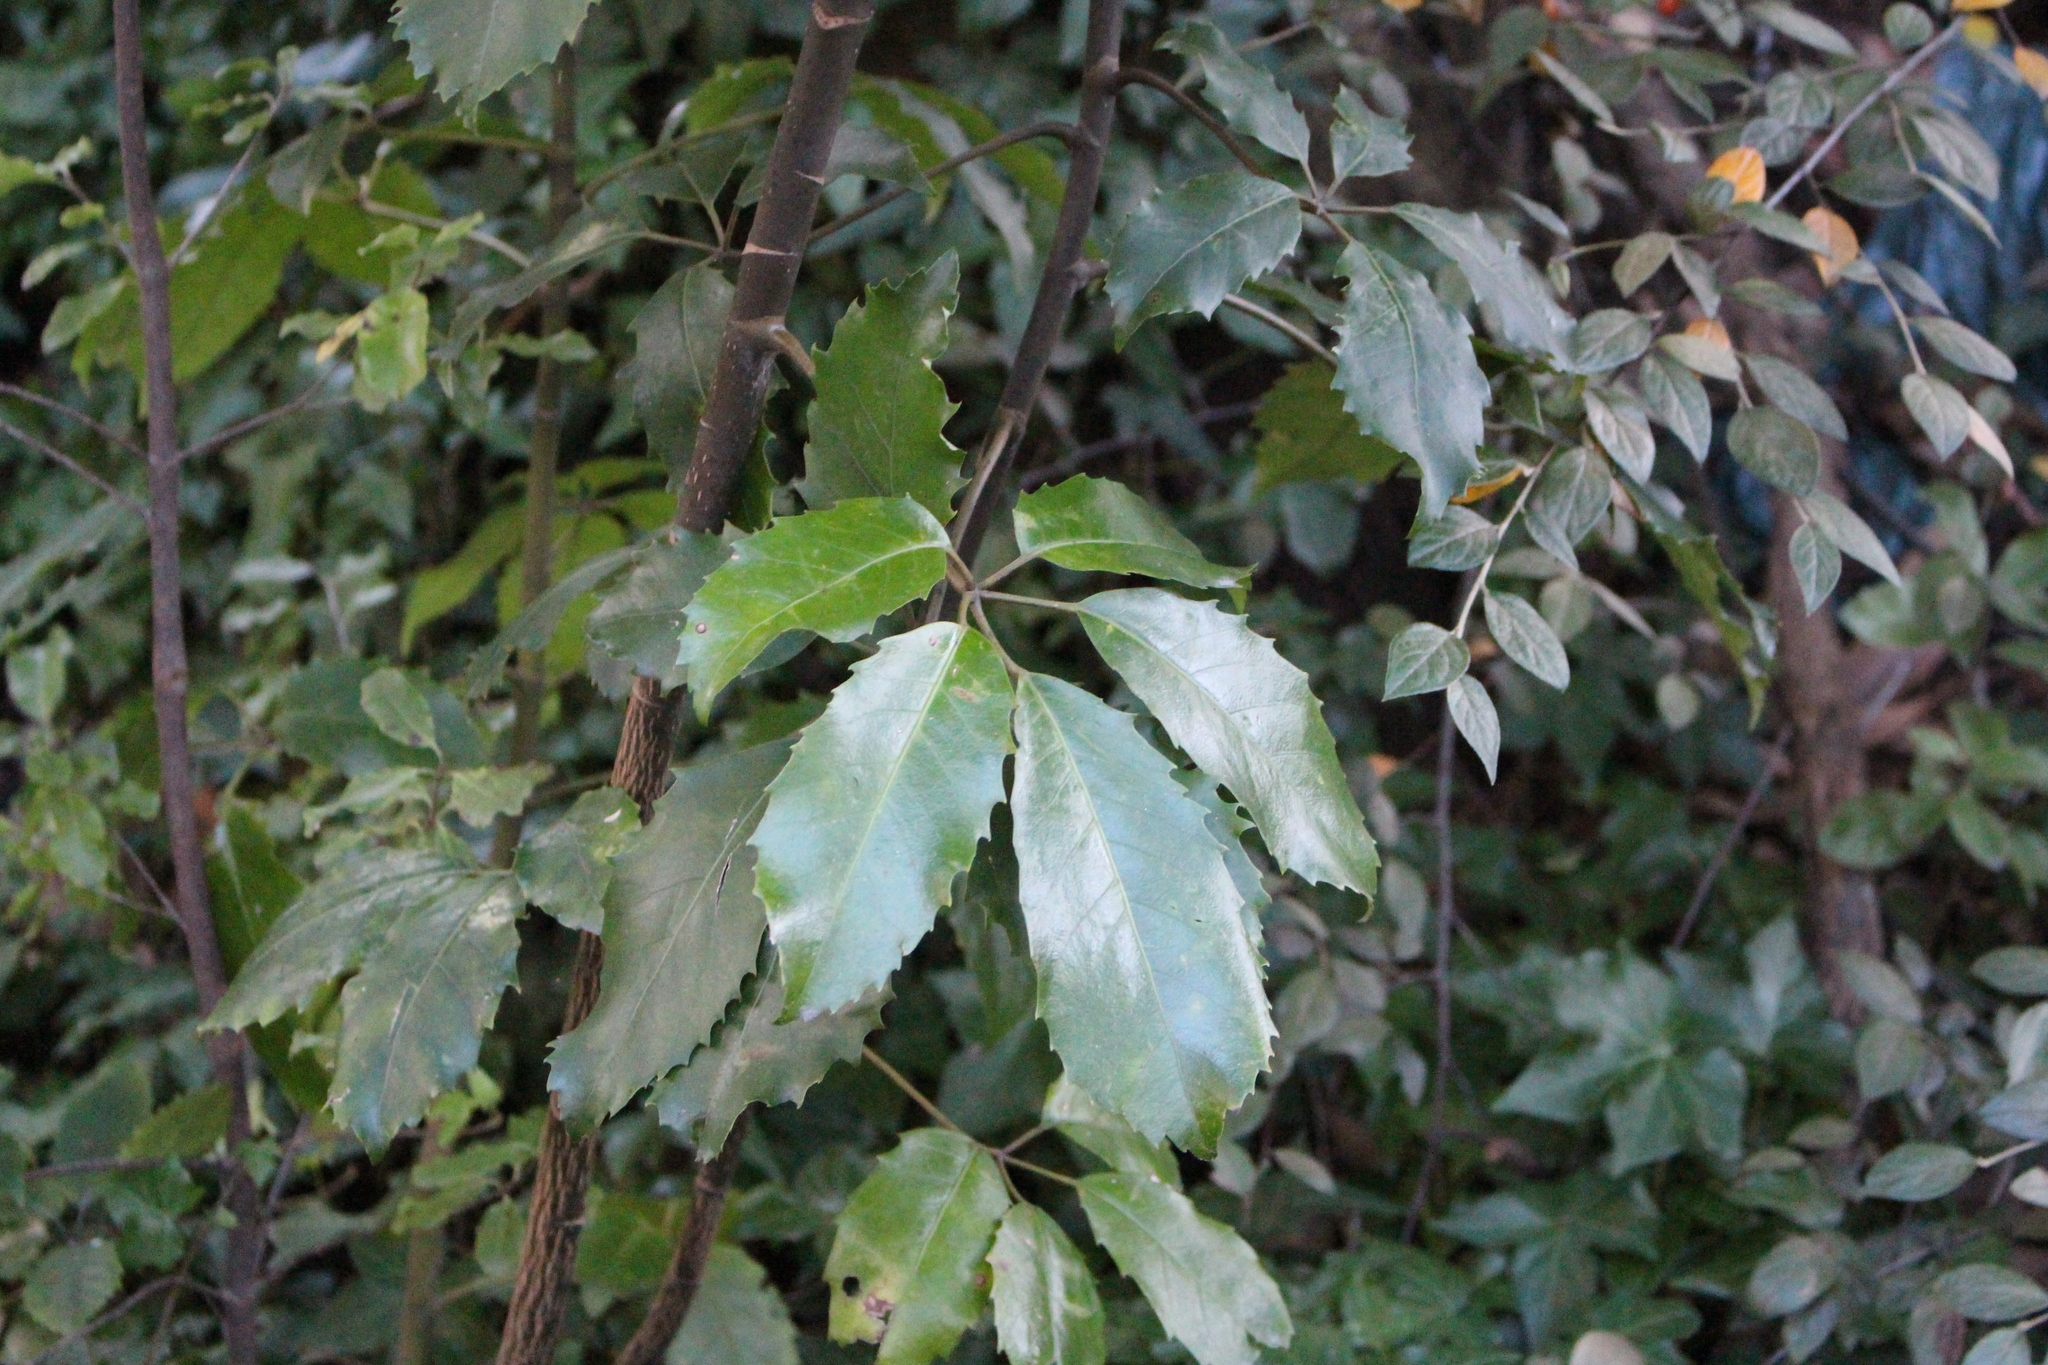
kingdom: Plantae
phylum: Tracheophyta
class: Magnoliopsida
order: Apiales
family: Araliaceae
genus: Neopanax
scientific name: Neopanax arboreus
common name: Five-fingers
